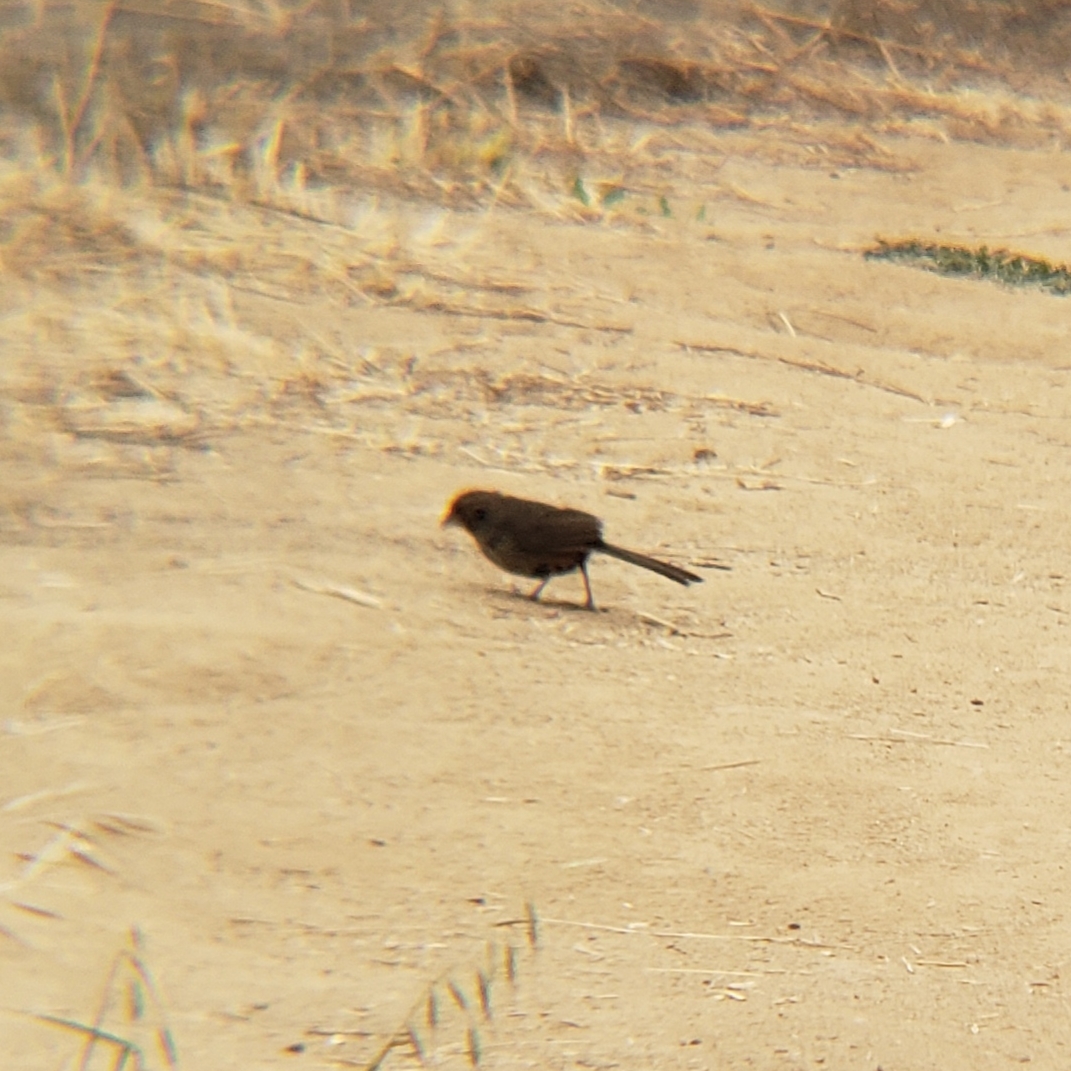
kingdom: Animalia
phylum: Chordata
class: Aves
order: Passeriformes
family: Passerellidae
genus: Melozone
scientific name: Melozone crissalis
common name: California towhee
